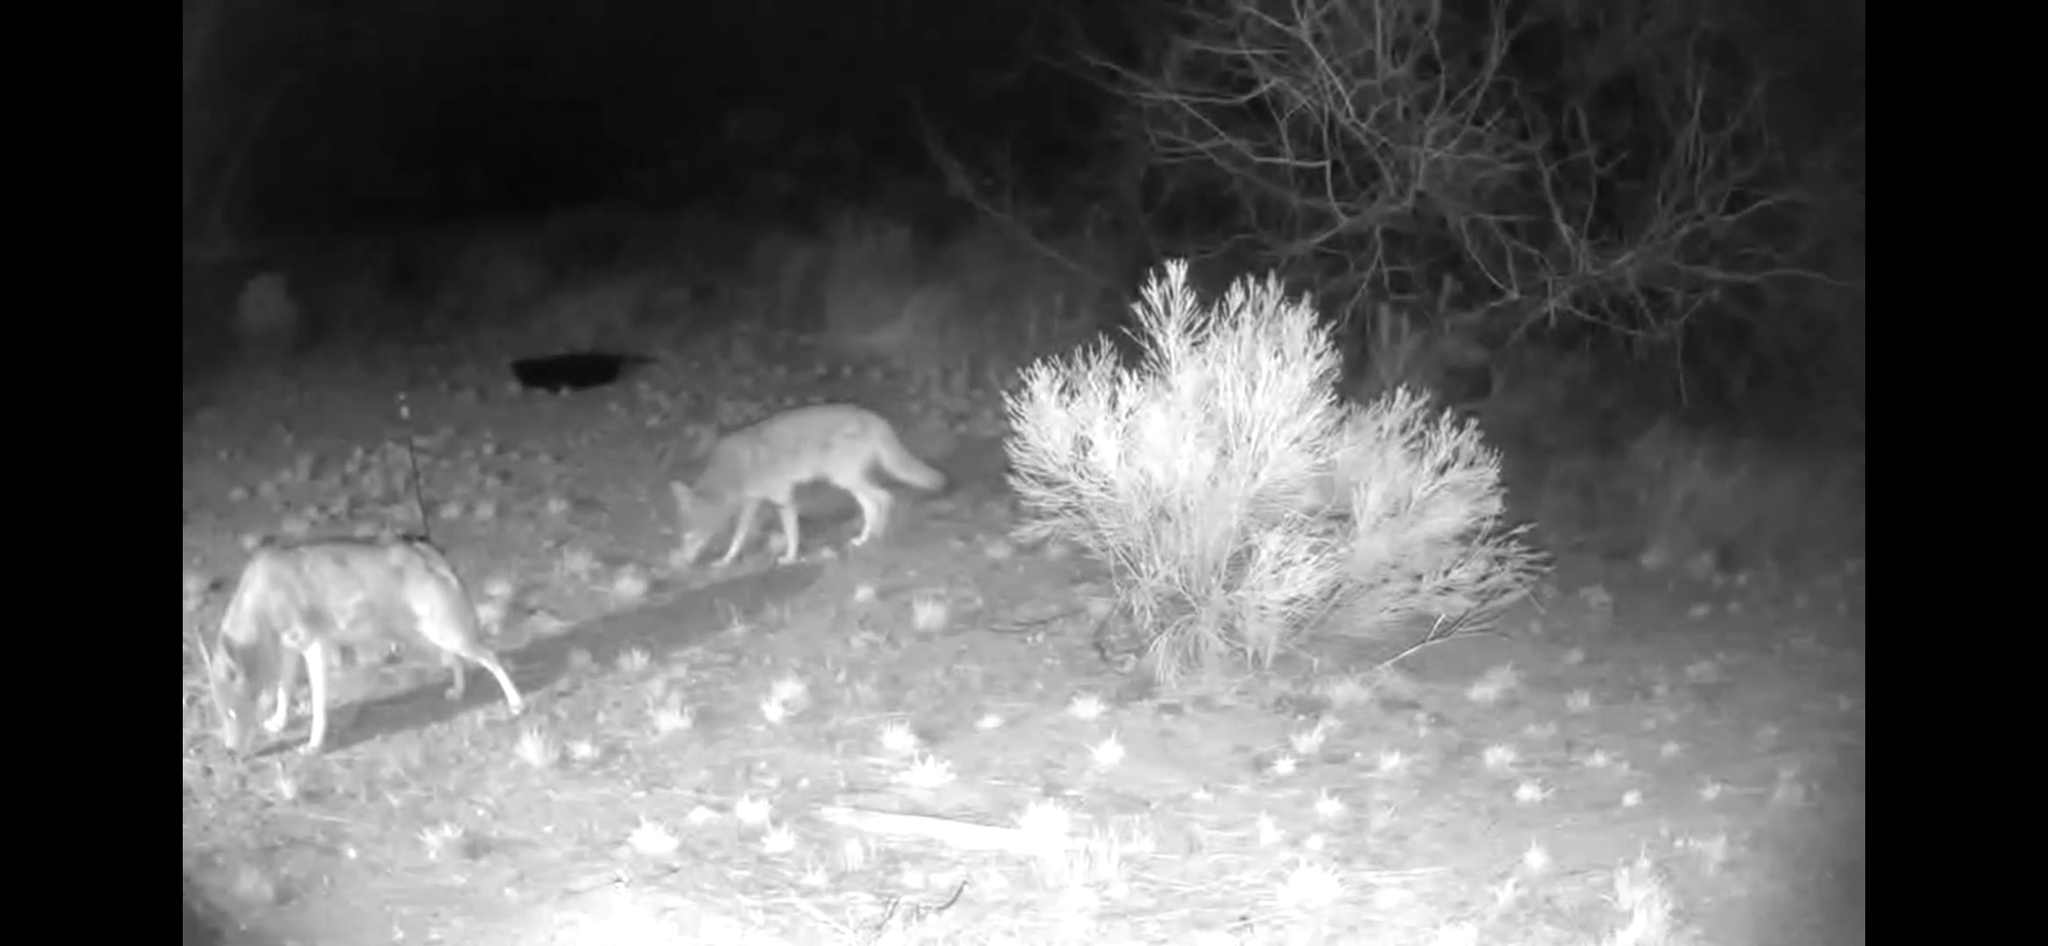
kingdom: Animalia
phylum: Chordata
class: Mammalia
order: Carnivora
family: Canidae
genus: Canis
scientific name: Canis latrans
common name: Coyote
